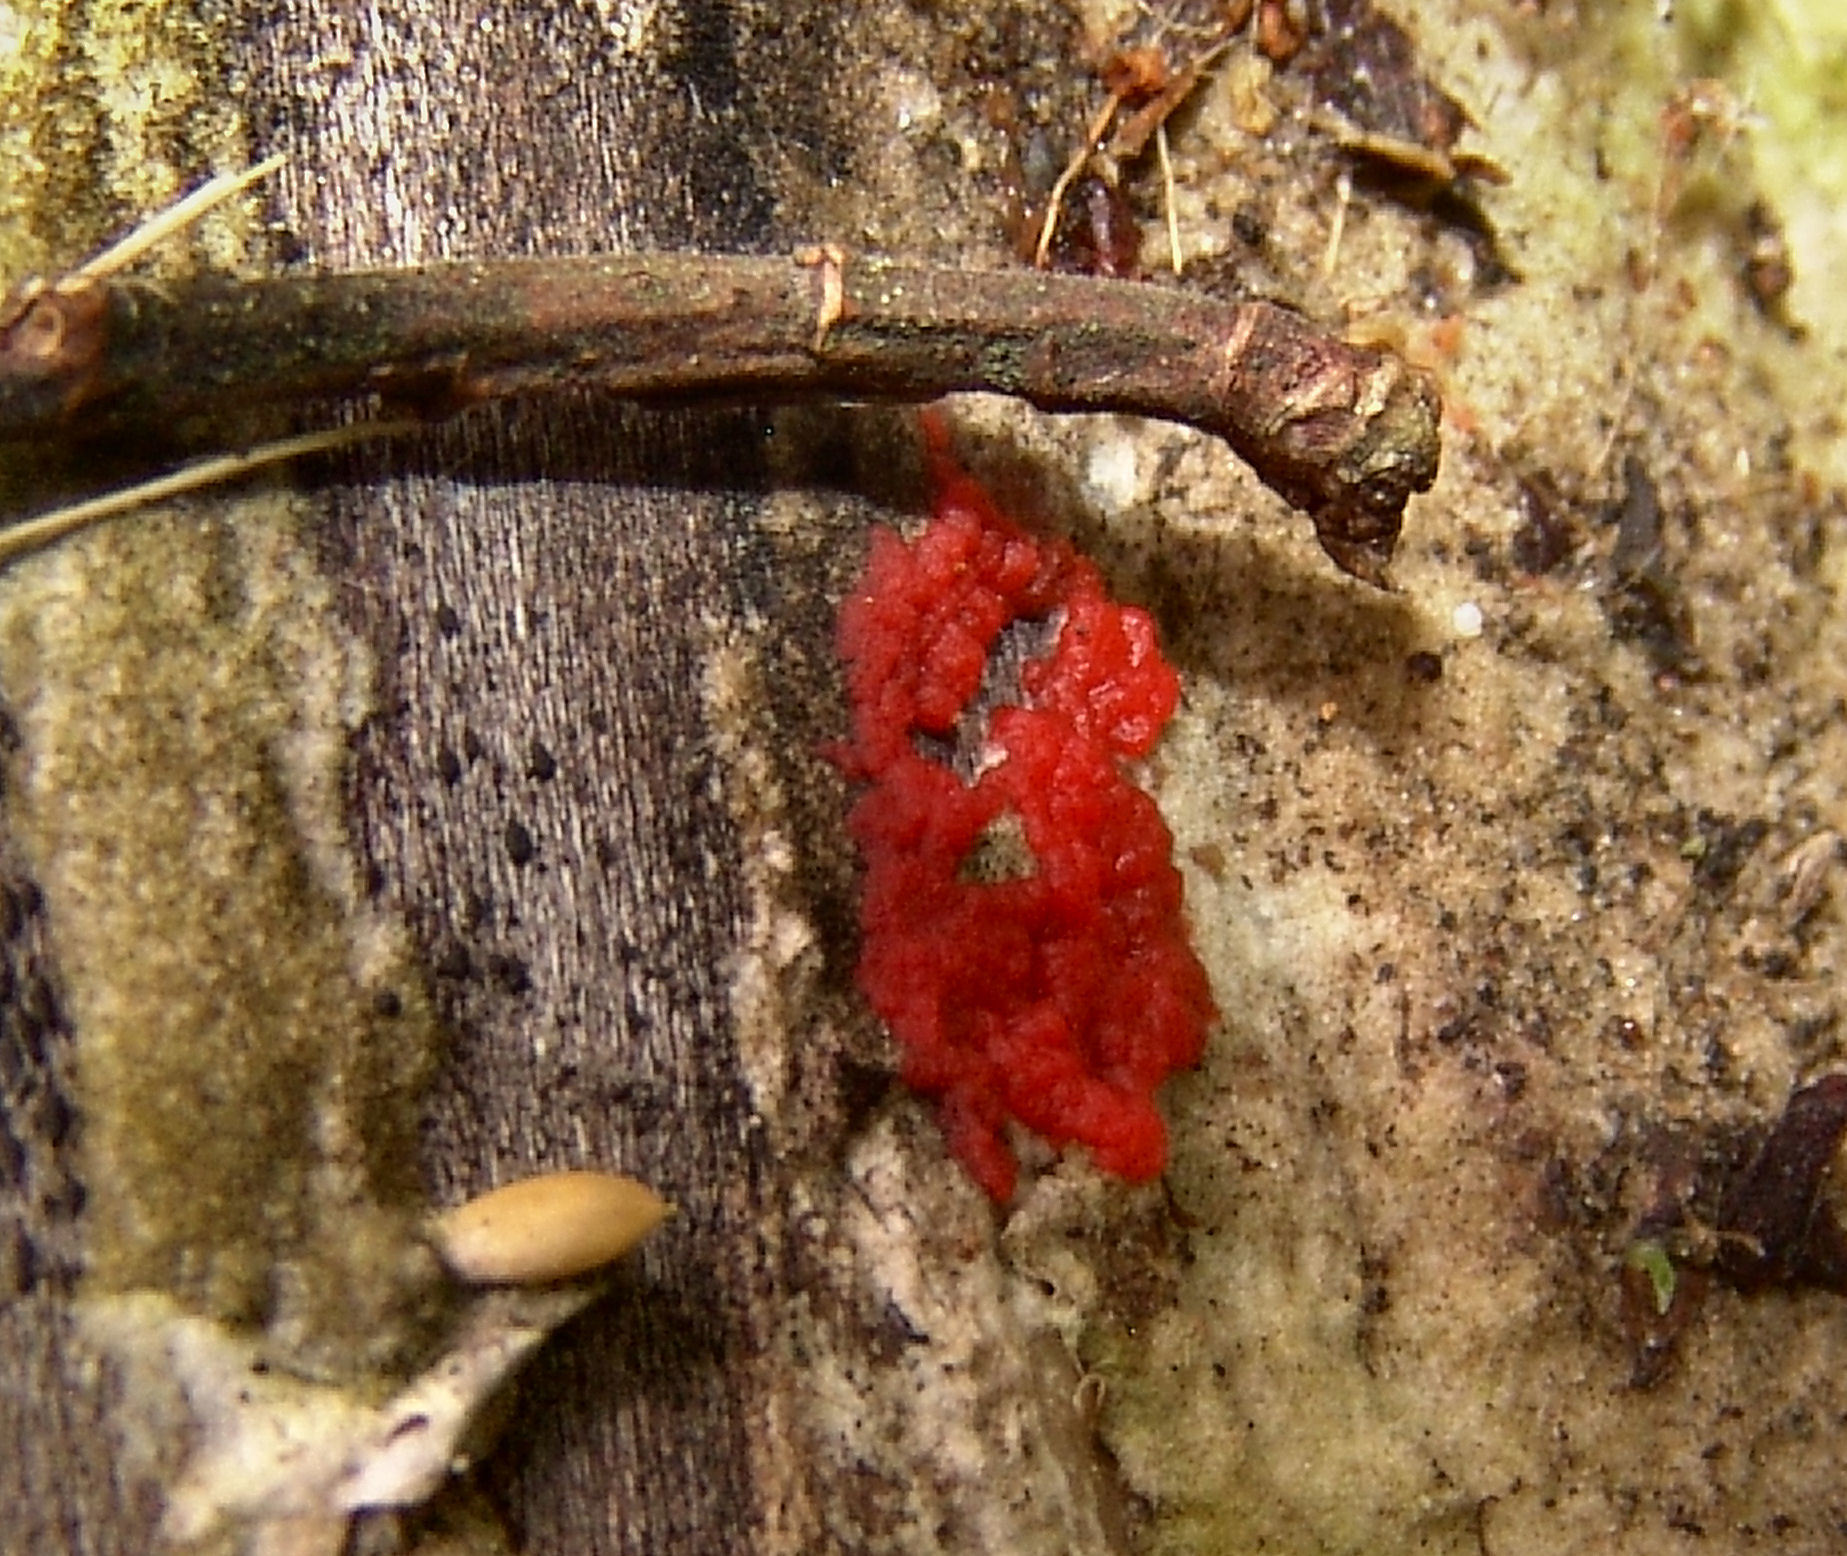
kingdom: Protozoa
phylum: Mycetozoa
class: Myxomycetes
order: Cribrariales
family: Tubiferaceae
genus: Tubifera
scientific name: Tubifera ferruginosa
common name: Red raspberry slime mold
